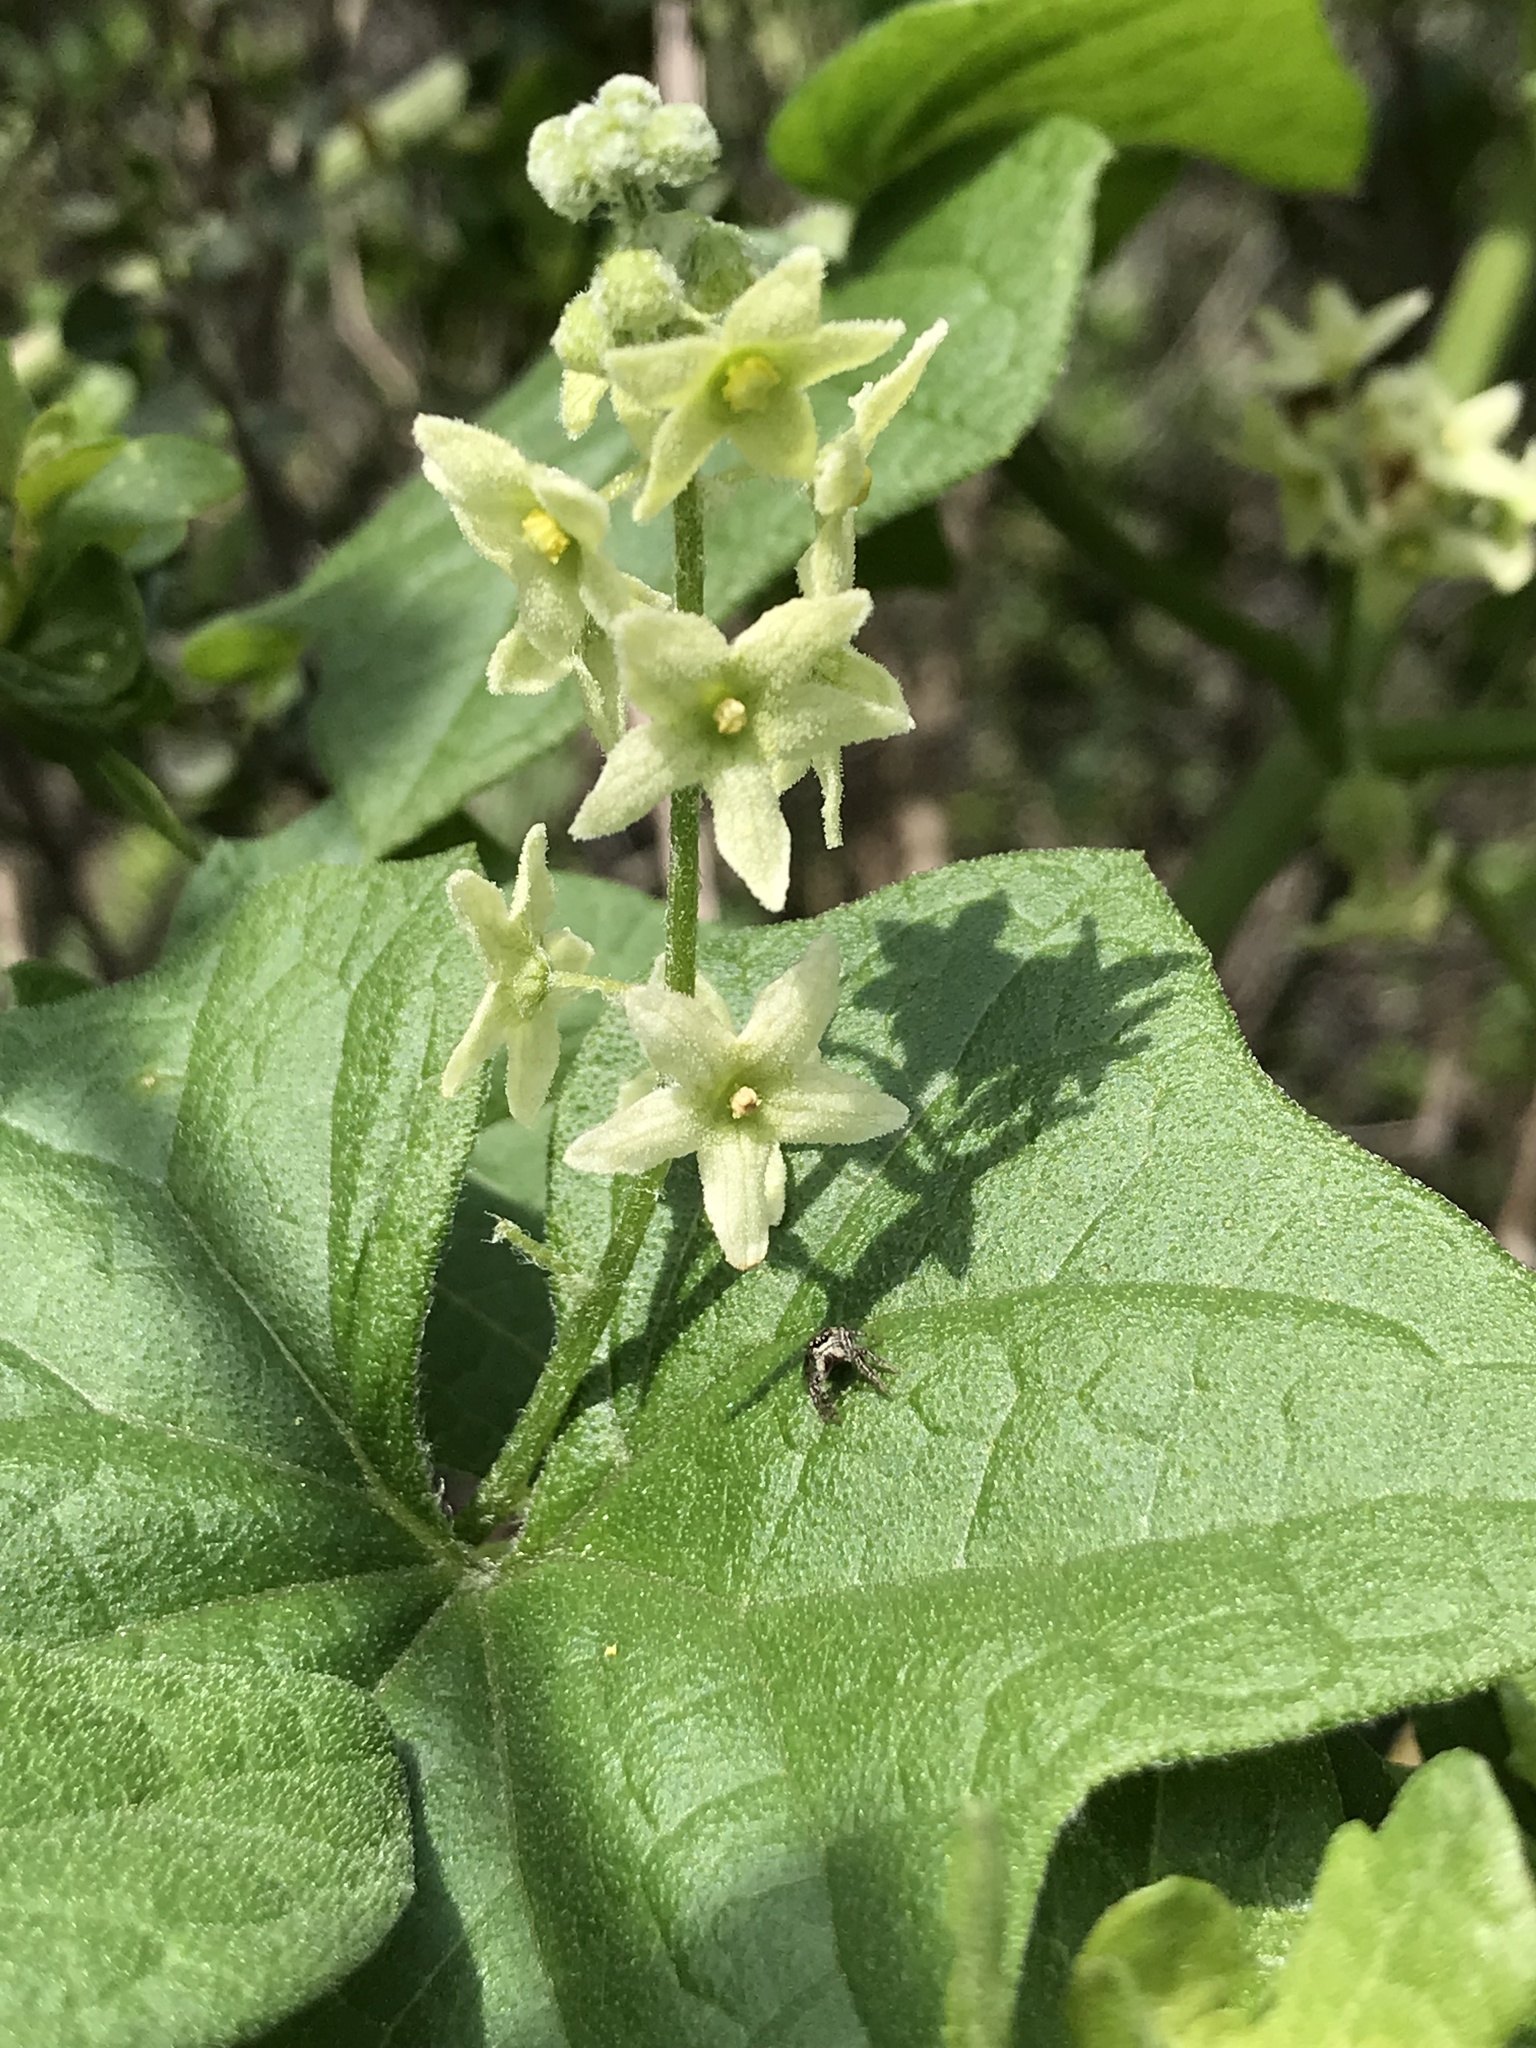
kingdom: Plantae
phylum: Tracheophyta
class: Magnoliopsida
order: Cucurbitales
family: Cucurbitaceae
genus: Marah
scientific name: Marah fabacea
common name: California manroot
